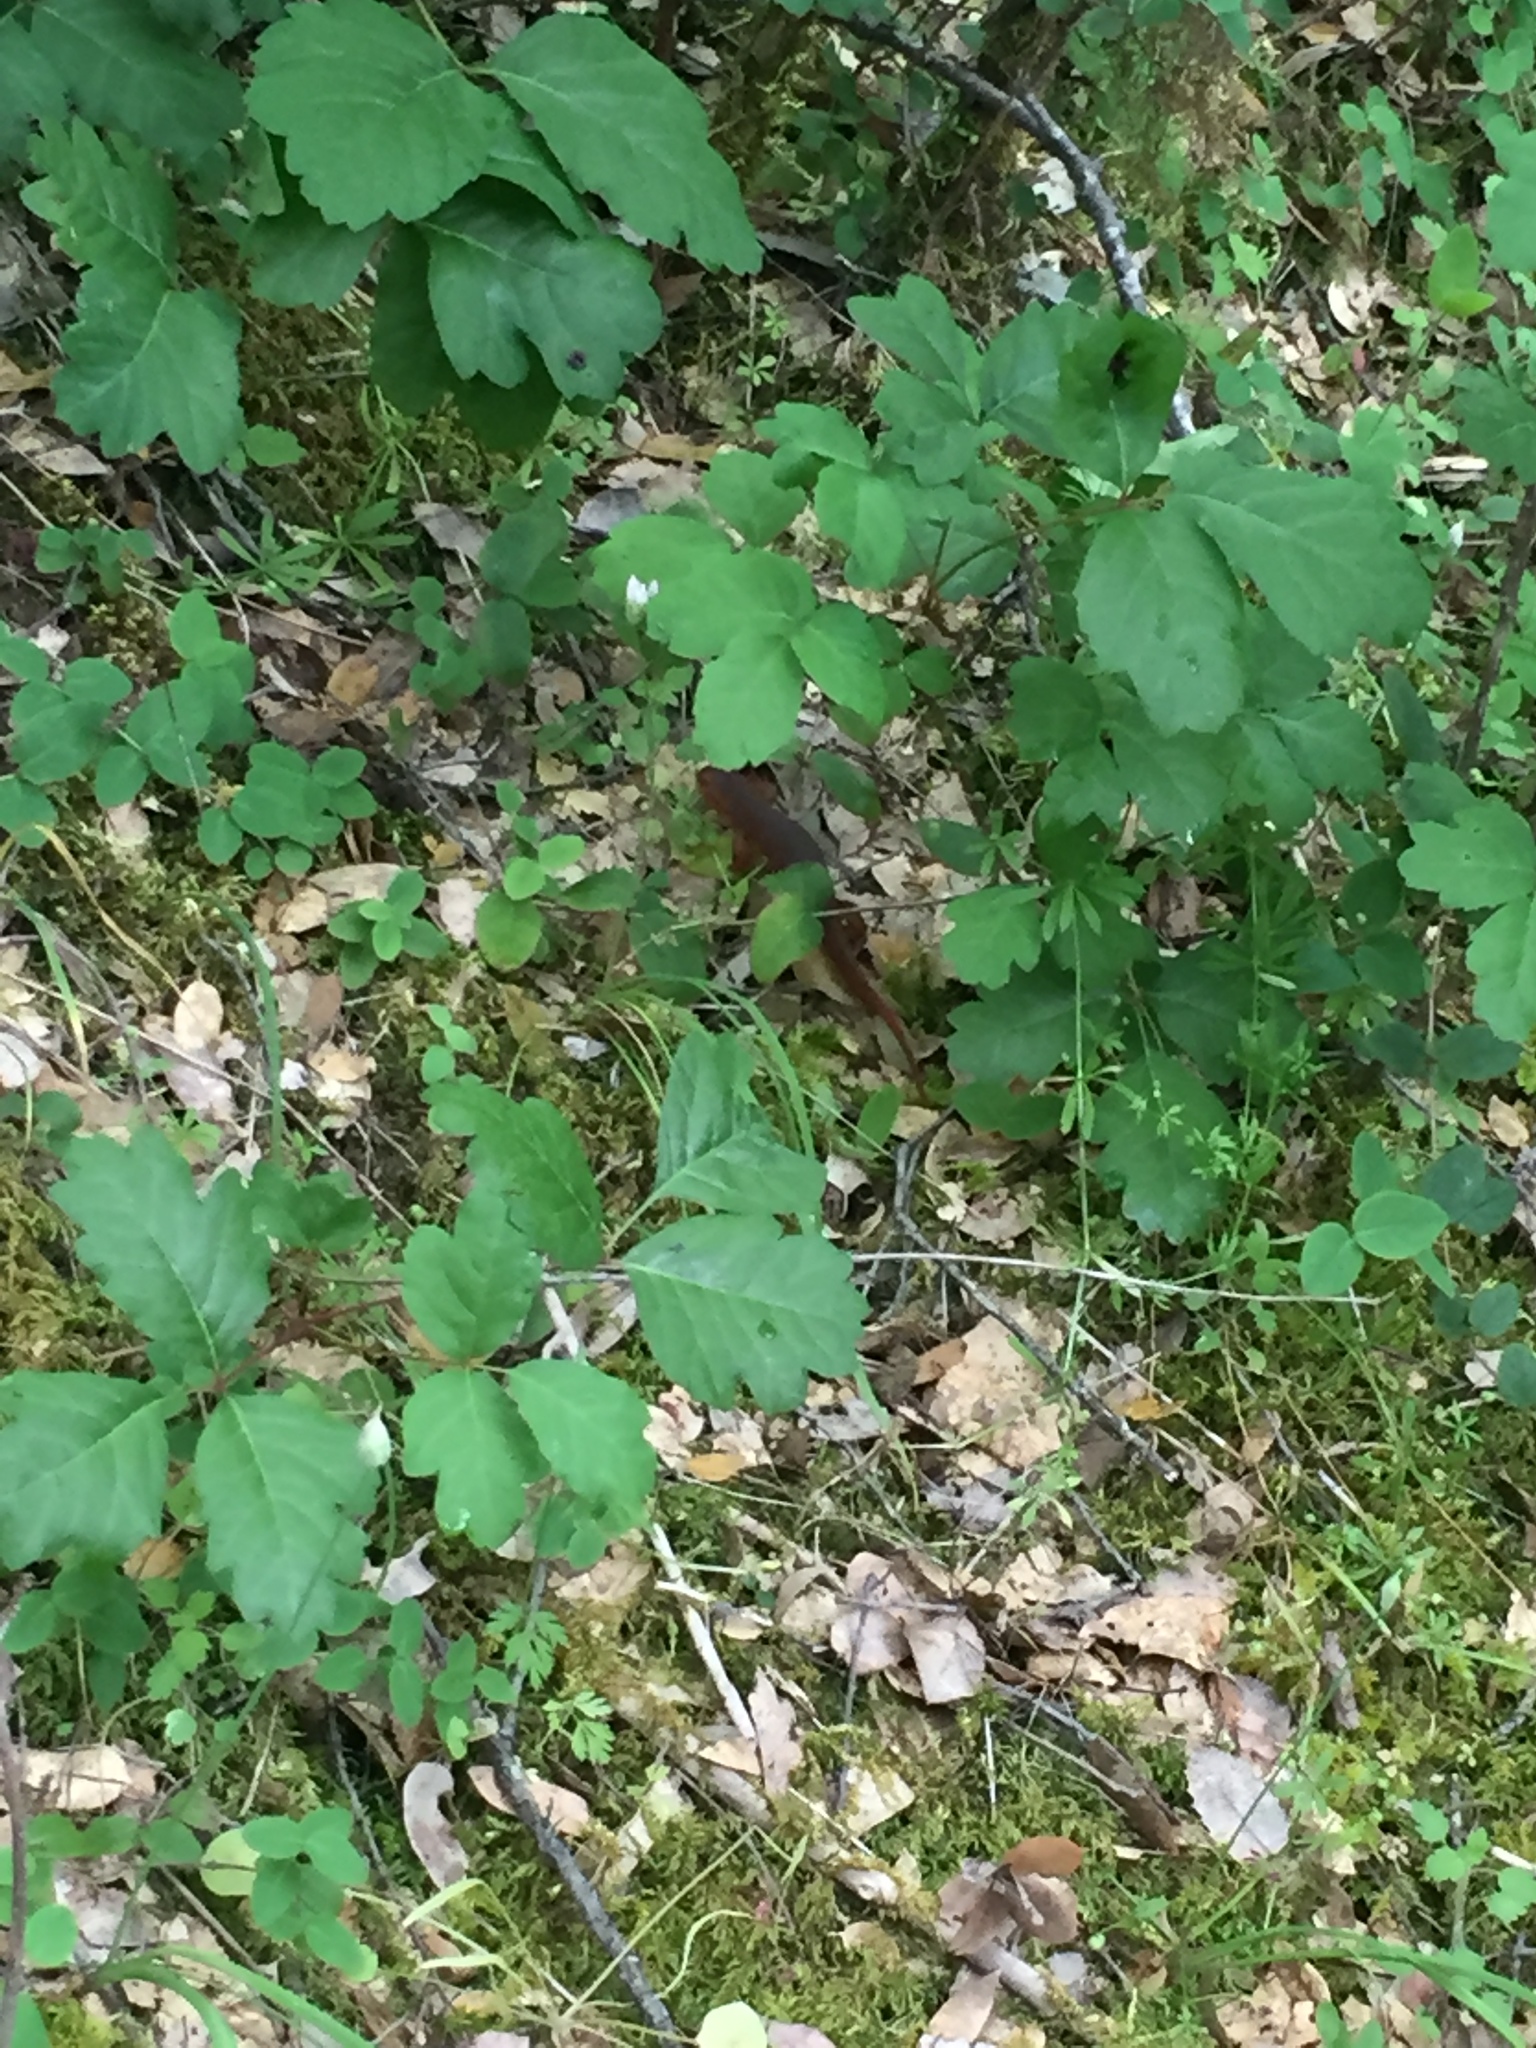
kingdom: Plantae
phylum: Tracheophyta
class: Magnoliopsida
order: Sapindales
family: Anacardiaceae
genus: Toxicodendron
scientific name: Toxicodendron diversilobum
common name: Pacific poison-oak
